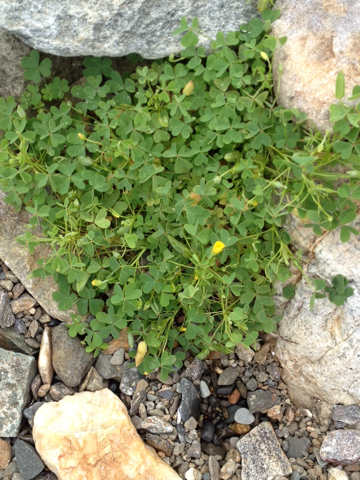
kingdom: Plantae
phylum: Tracheophyta
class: Magnoliopsida
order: Oxalidales
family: Oxalidaceae
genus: Oxalis
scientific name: Oxalis stricta
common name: Upright yellow-sorrel
